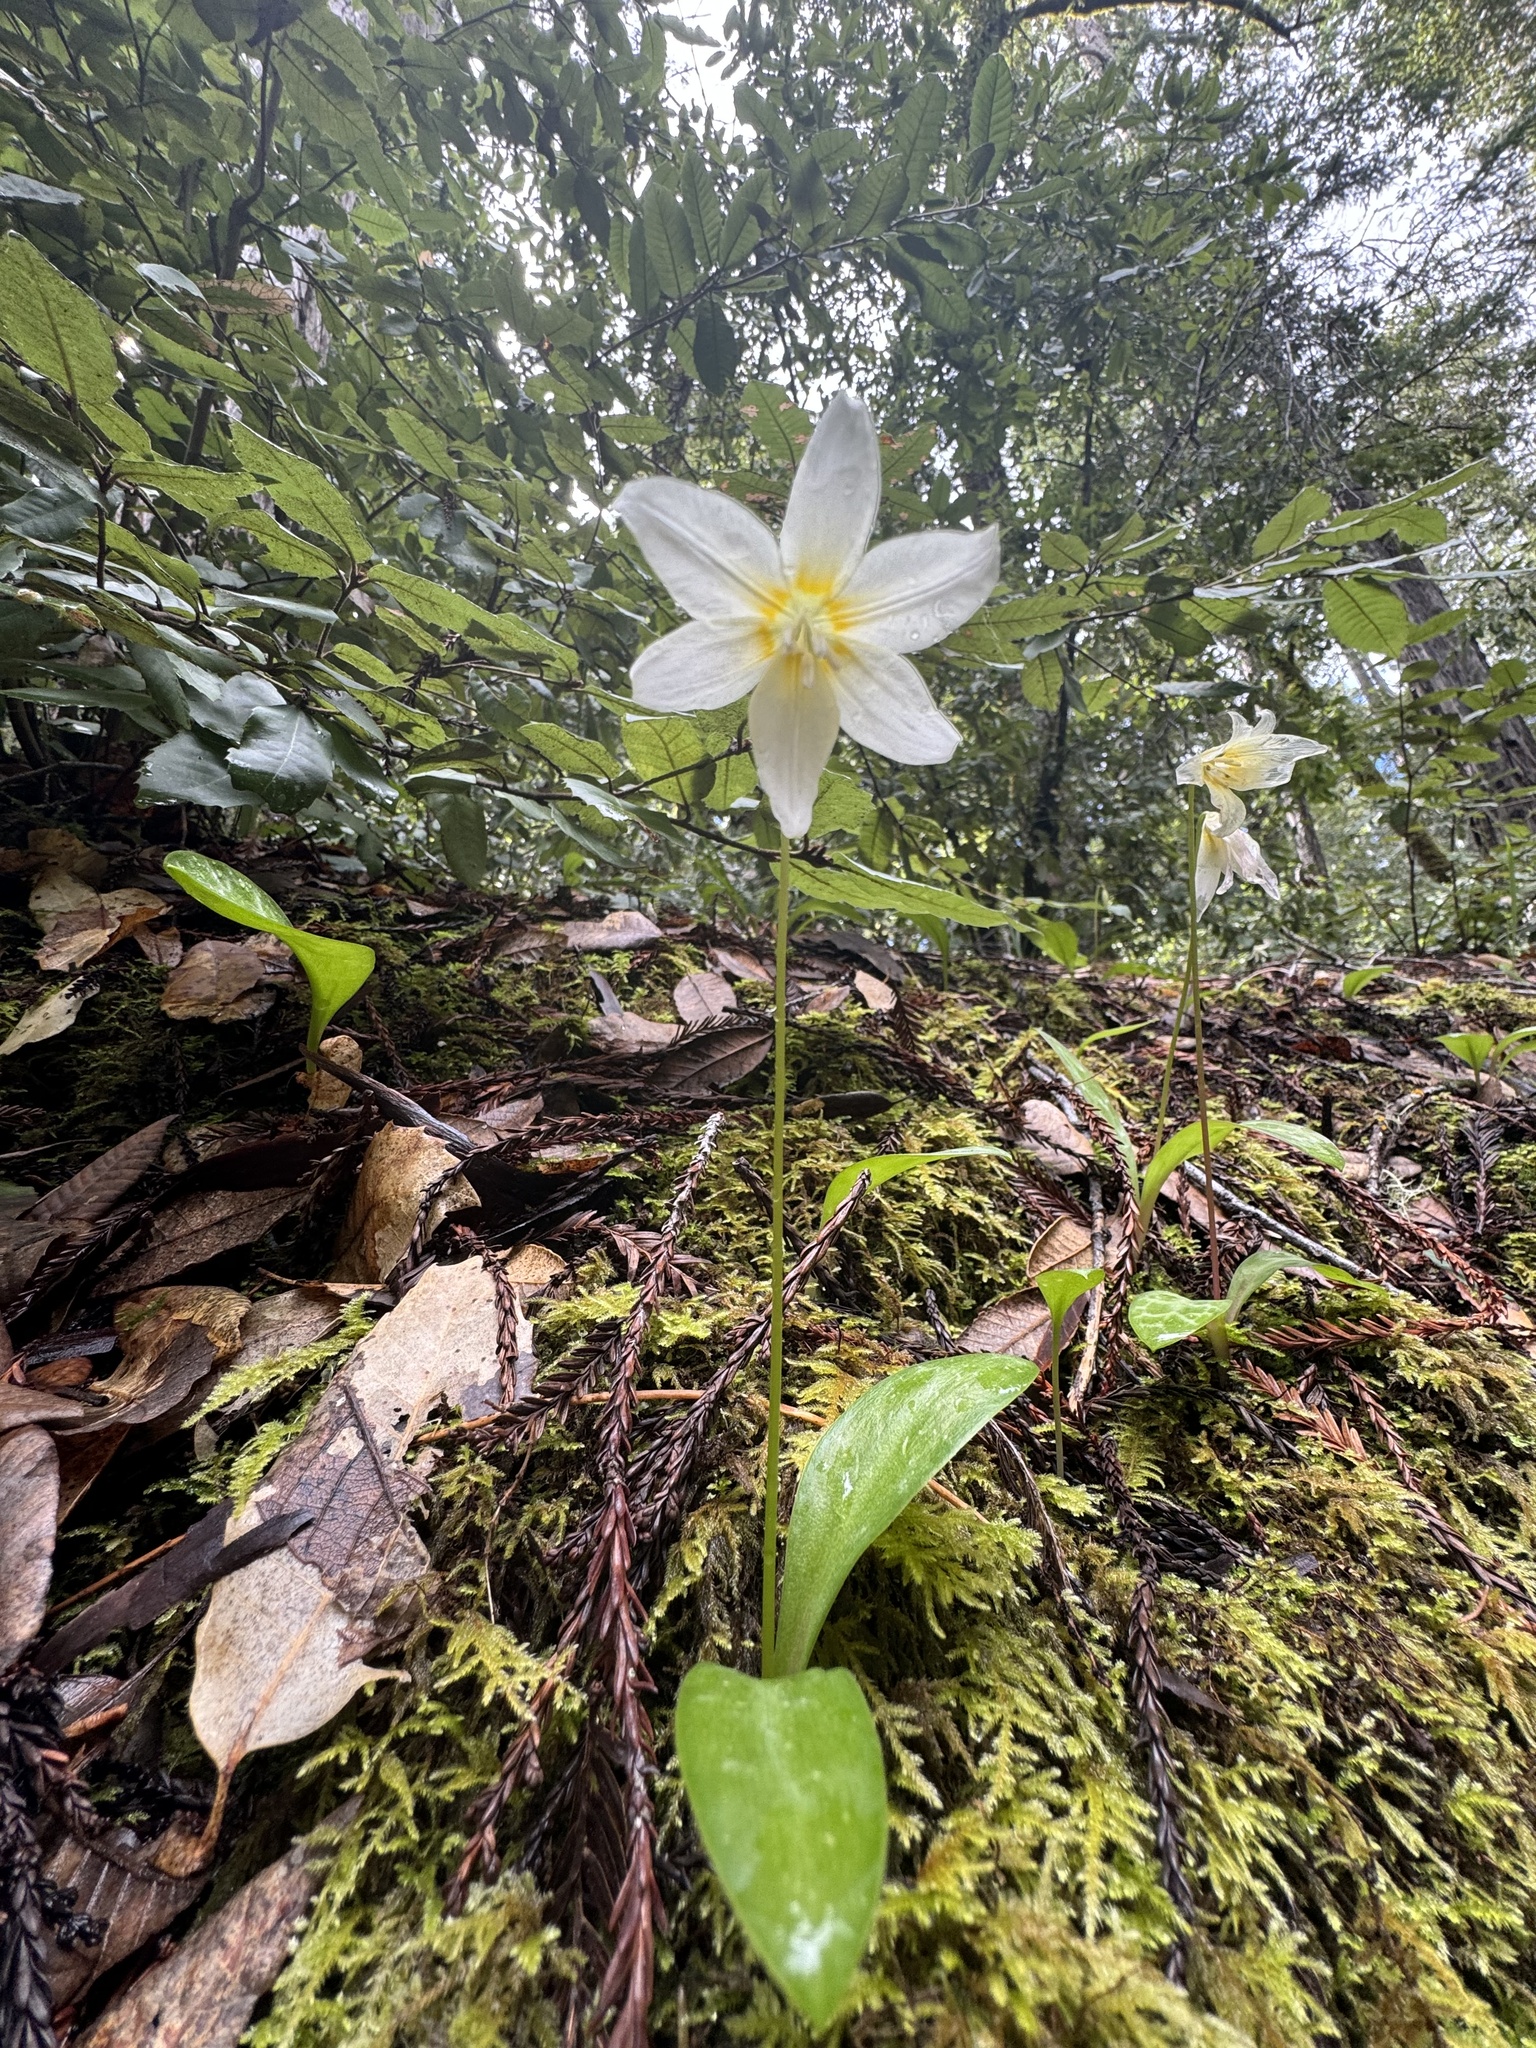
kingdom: Plantae
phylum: Tracheophyta
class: Liliopsida
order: Liliales
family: Liliaceae
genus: Erythronium
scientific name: Erythronium californicum
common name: Fawn-lily
